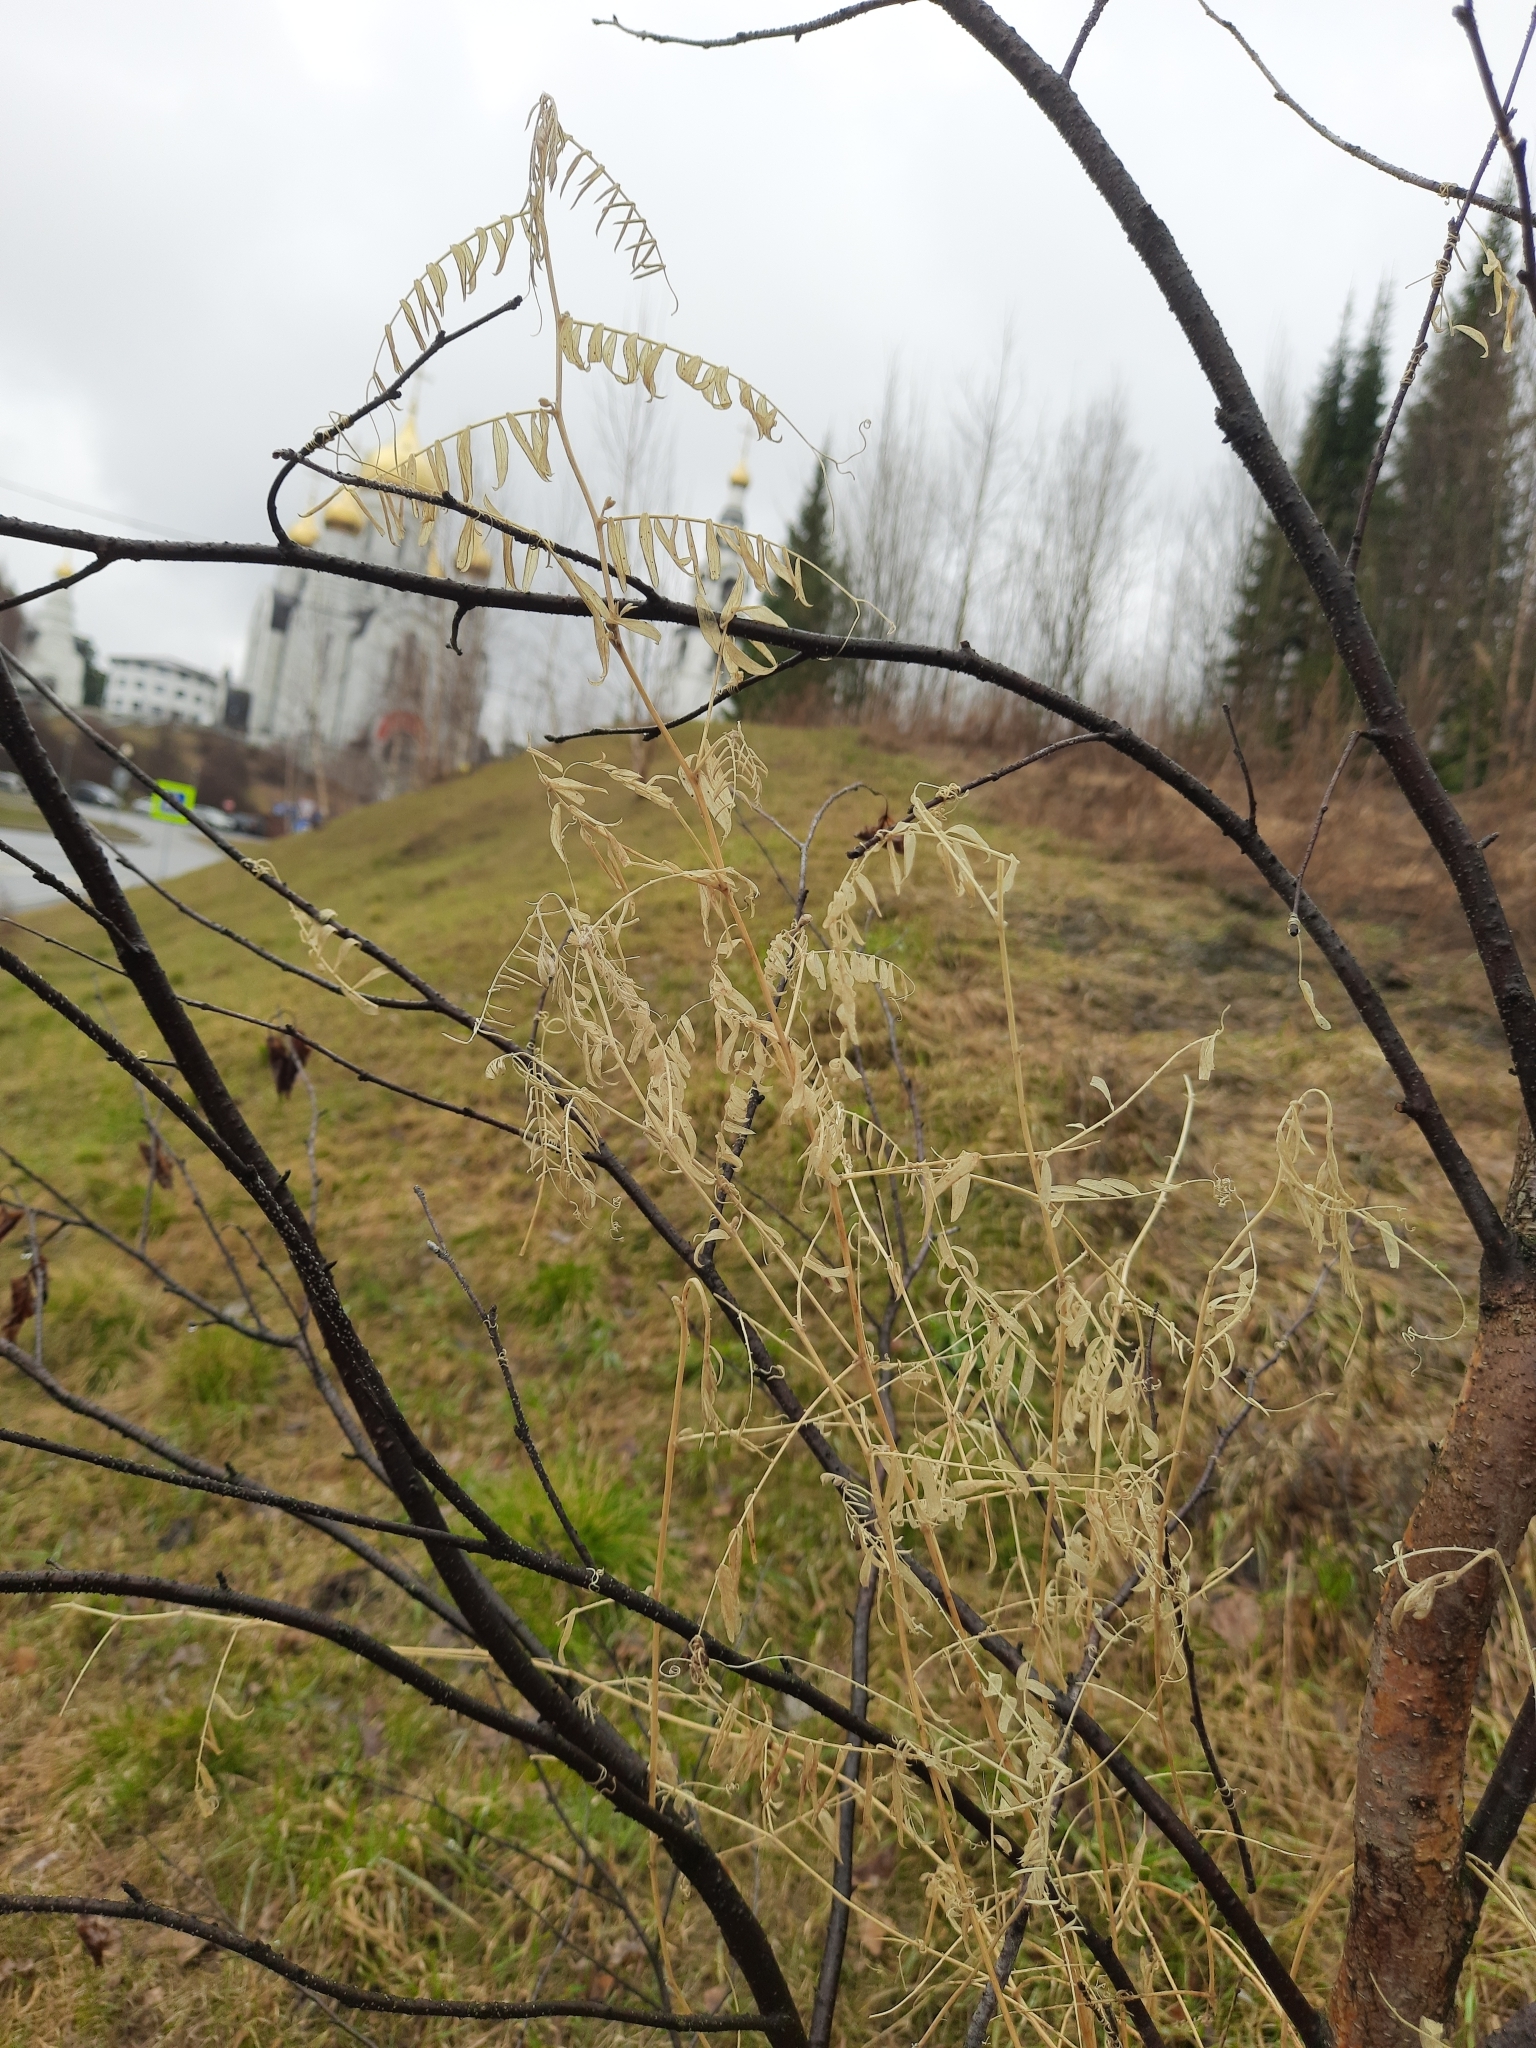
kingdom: Plantae
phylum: Tracheophyta
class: Magnoliopsida
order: Fabales
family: Fabaceae
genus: Vicia
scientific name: Vicia cracca
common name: Bird vetch
